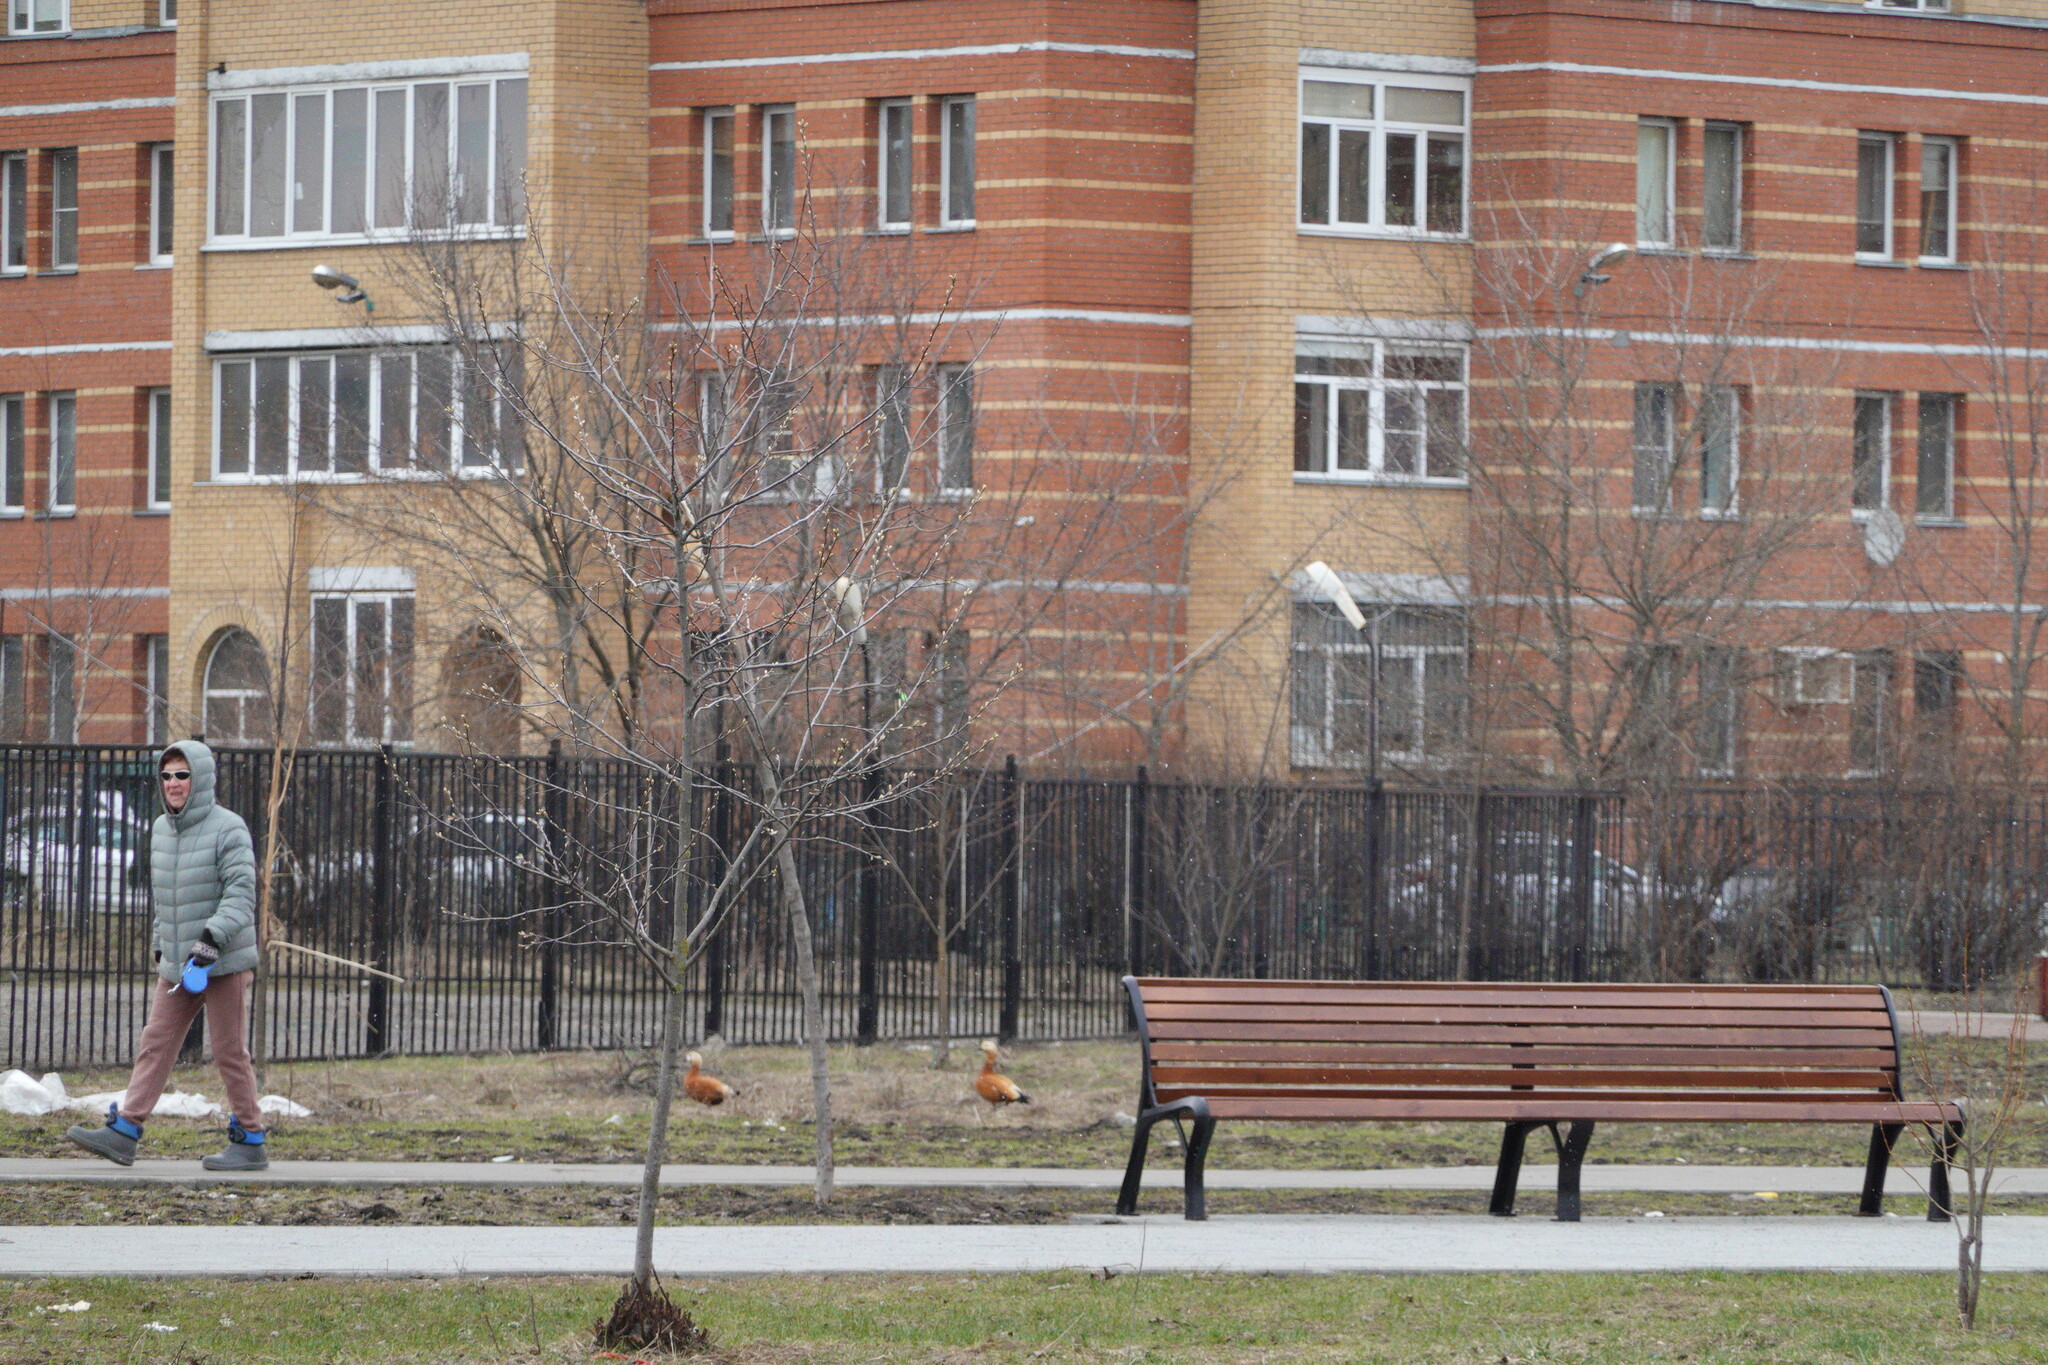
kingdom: Animalia
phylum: Chordata
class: Aves
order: Anseriformes
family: Anatidae
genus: Tadorna
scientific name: Tadorna ferruginea
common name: Ruddy shelduck
